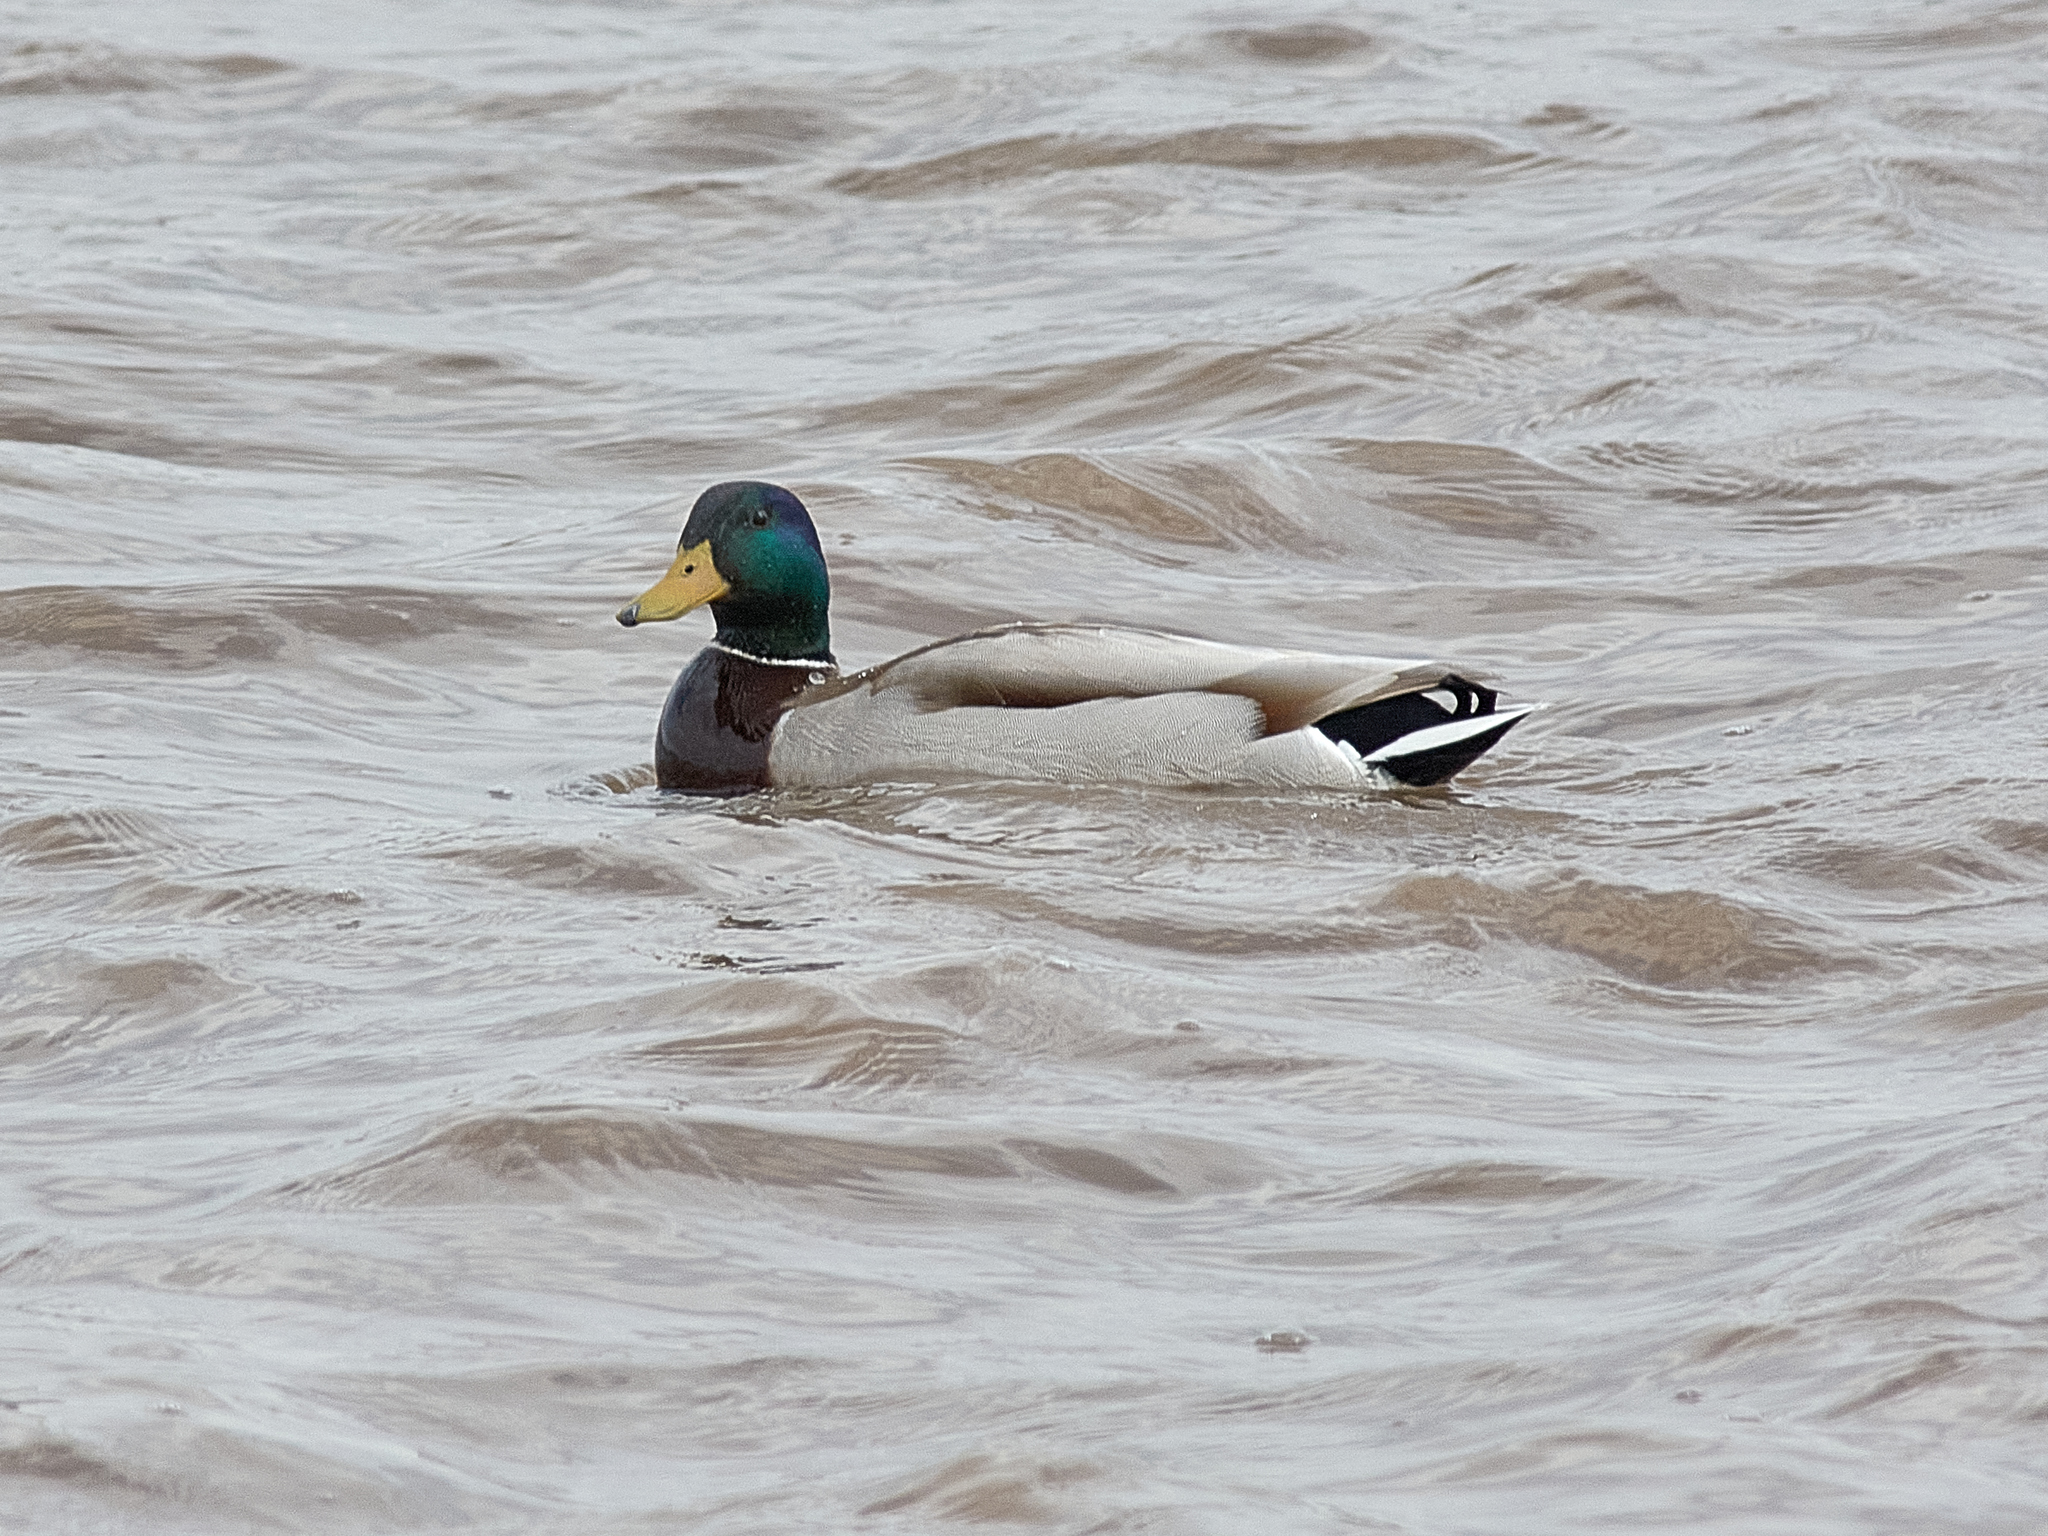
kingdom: Animalia
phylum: Chordata
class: Aves
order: Anseriformes
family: Anatidae
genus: Anas
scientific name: Anas platyrhynchos
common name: Mallard
